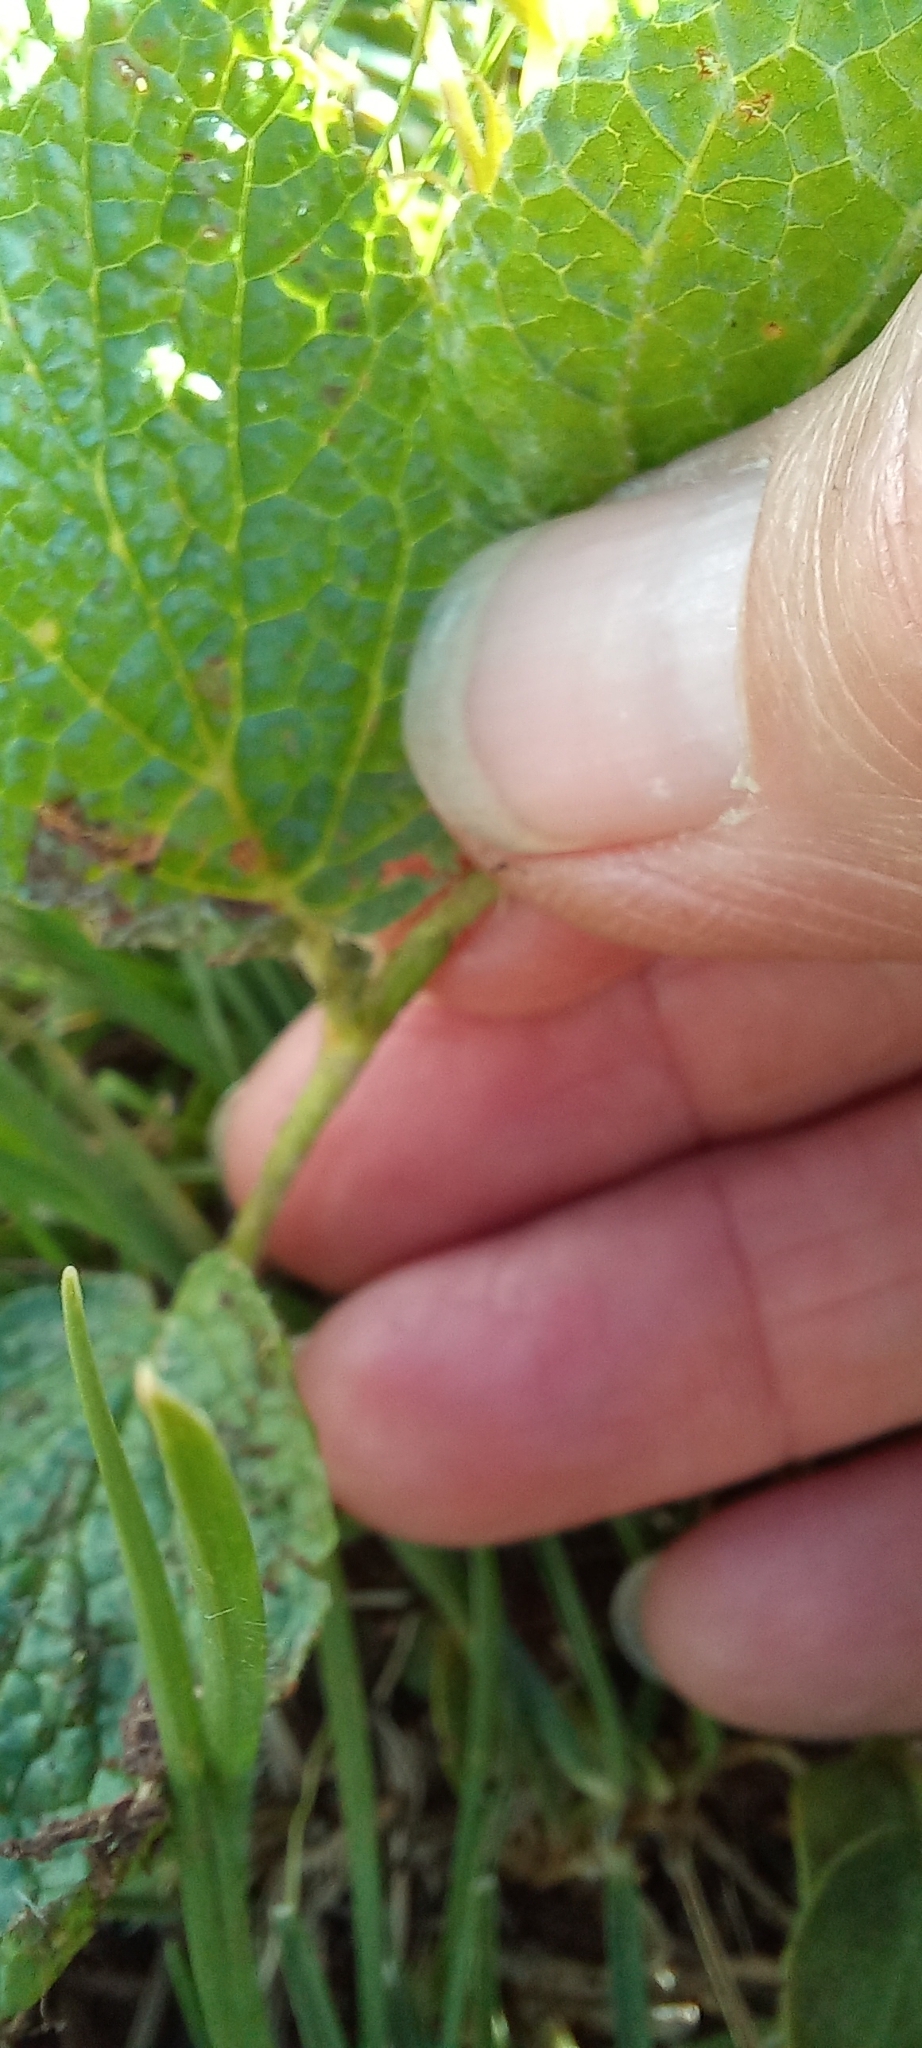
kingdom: Plantae
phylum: Tracheophyta
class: Magnoliopsida
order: Malvales
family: Malvaceae
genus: Hermannia
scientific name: Hermannia gerardii
